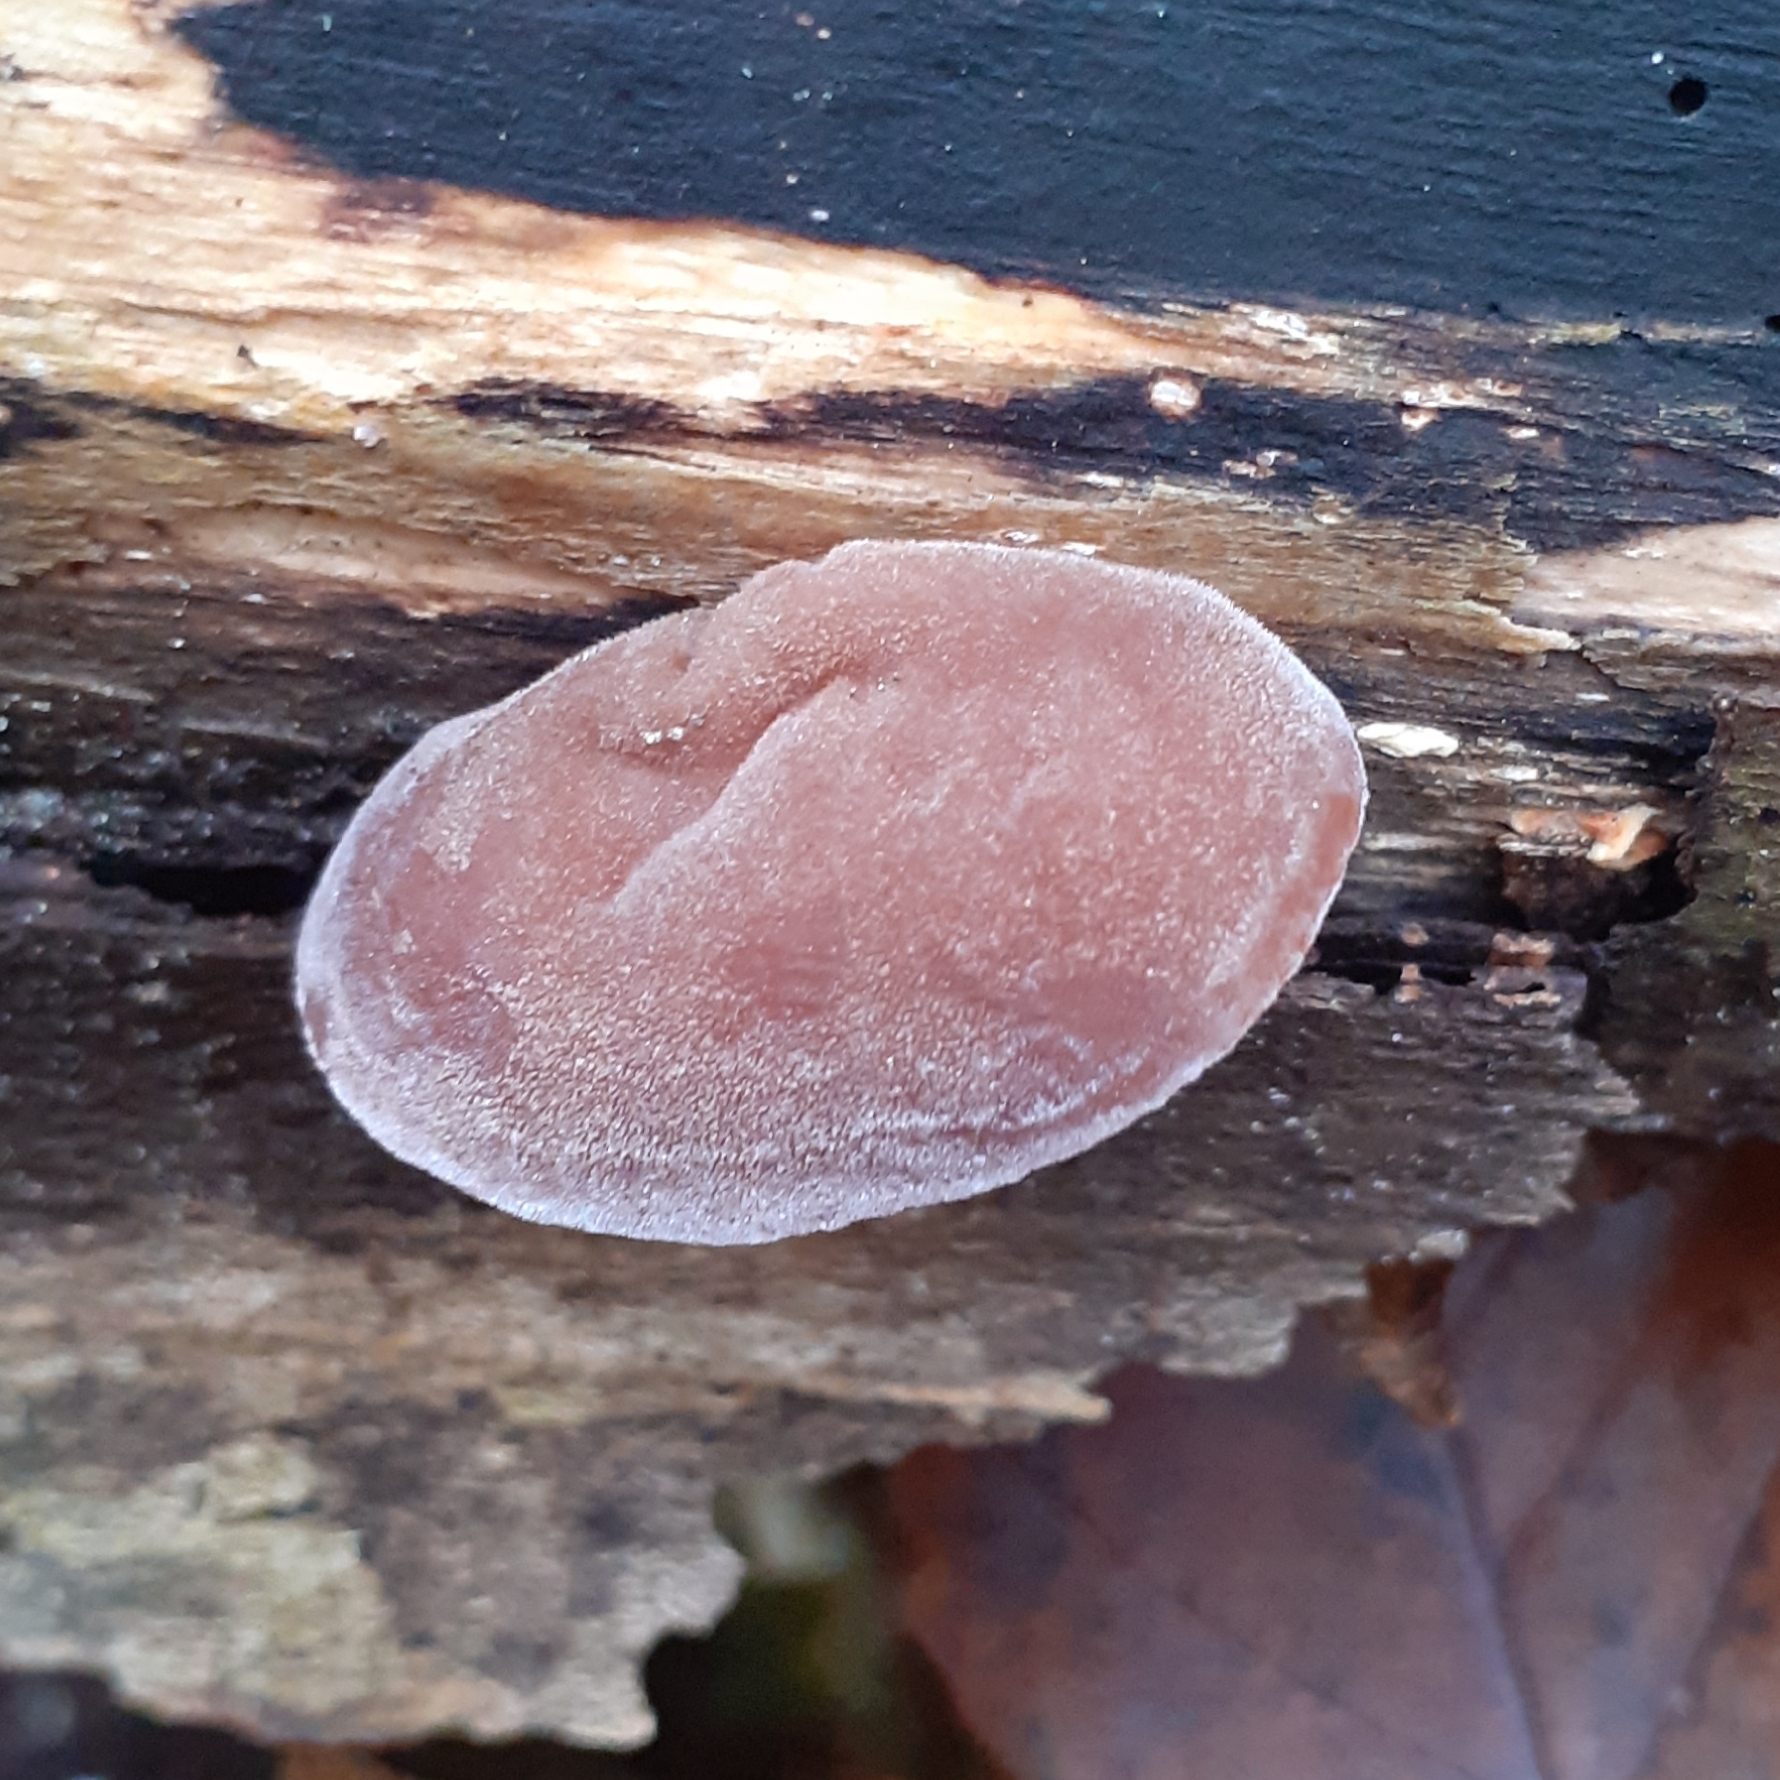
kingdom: Fungi
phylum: Basidiomycota
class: Agaricomycetes
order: Auriculariales
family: Auriculariaceae
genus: Auricularia
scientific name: Auricularia auricula-judae
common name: Jelly ear
